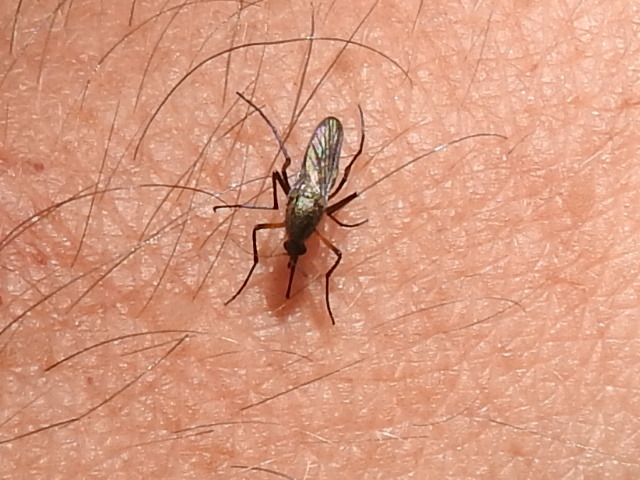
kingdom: Animalia
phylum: Arthropoda
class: Insecta
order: Diptera
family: Culicidae
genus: Psorophora
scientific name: Psorophora cyanescens
